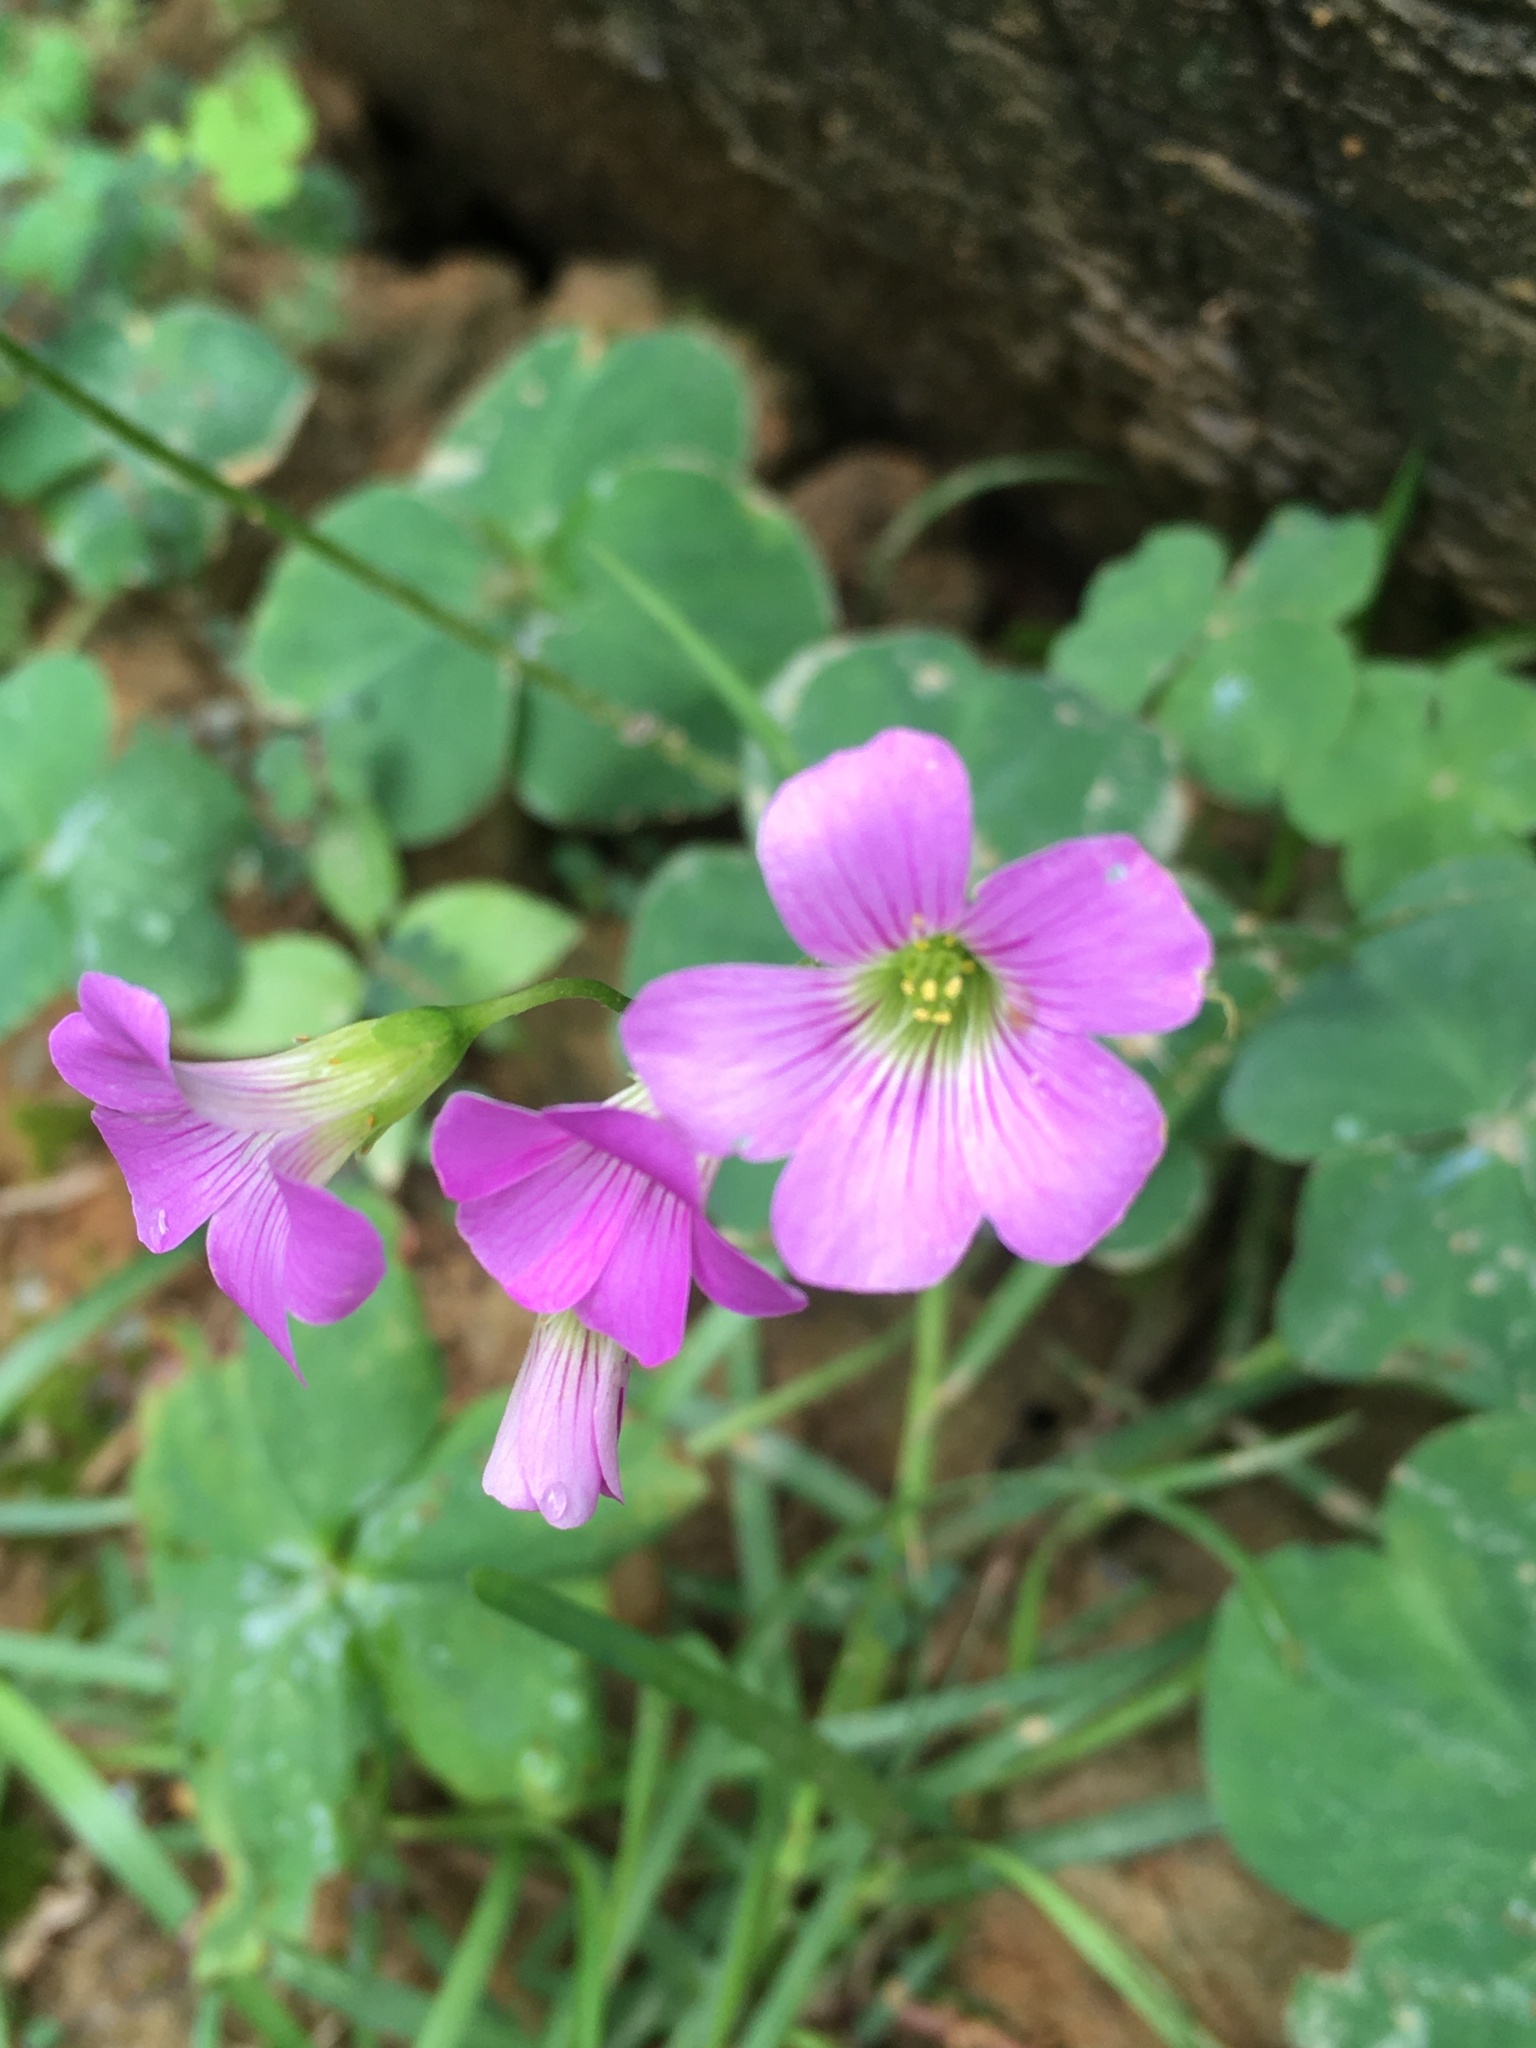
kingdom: Plantae
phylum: Tracheophyta
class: Magnoliopsida
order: Oxalidales
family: Oxalidaceae
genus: Oxalis
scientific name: Oxalis debilis
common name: Large-flowered pink-sorrel
